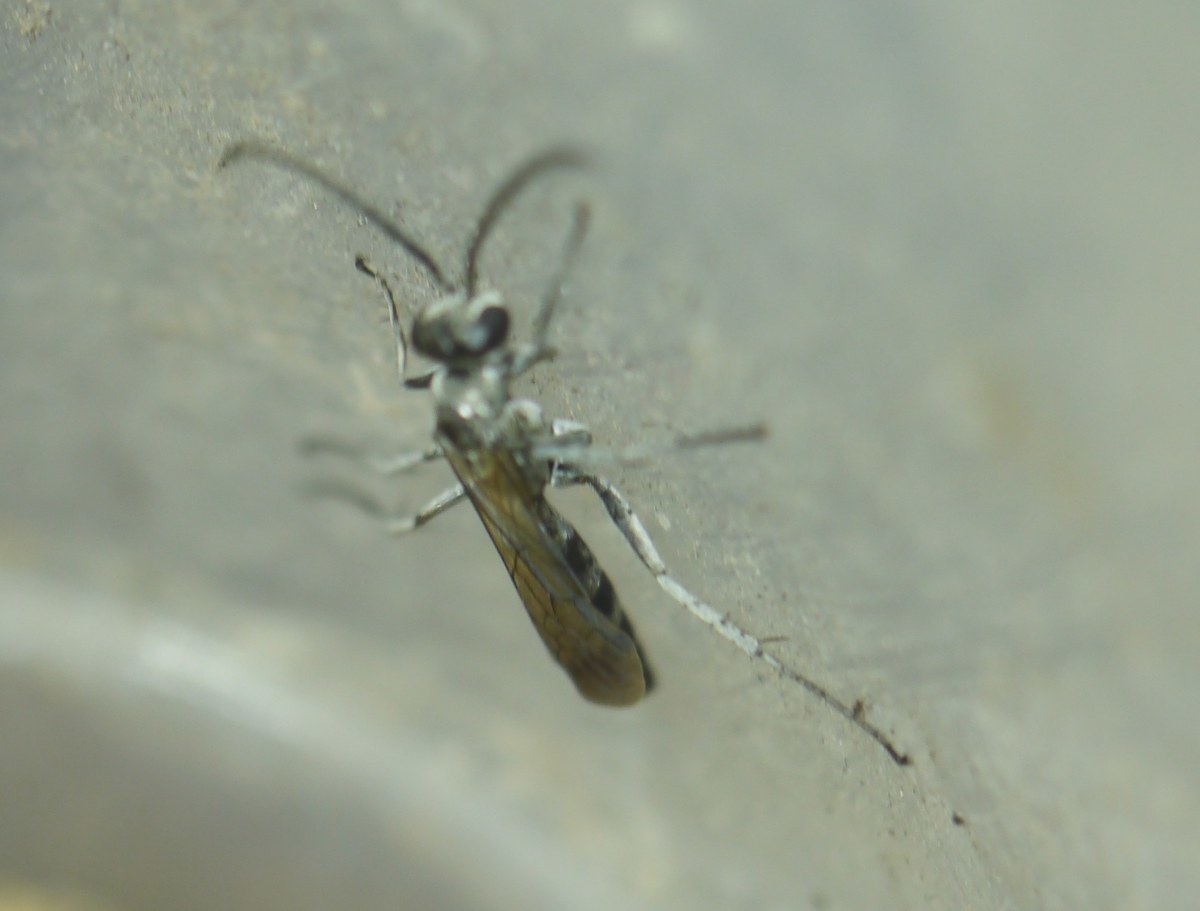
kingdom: Animalia
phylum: Arthropoda
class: Insecta
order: Hymenoptera
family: Pompilidae
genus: Pompilus
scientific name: Pompilus cinereus
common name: Leaden spider wasp
